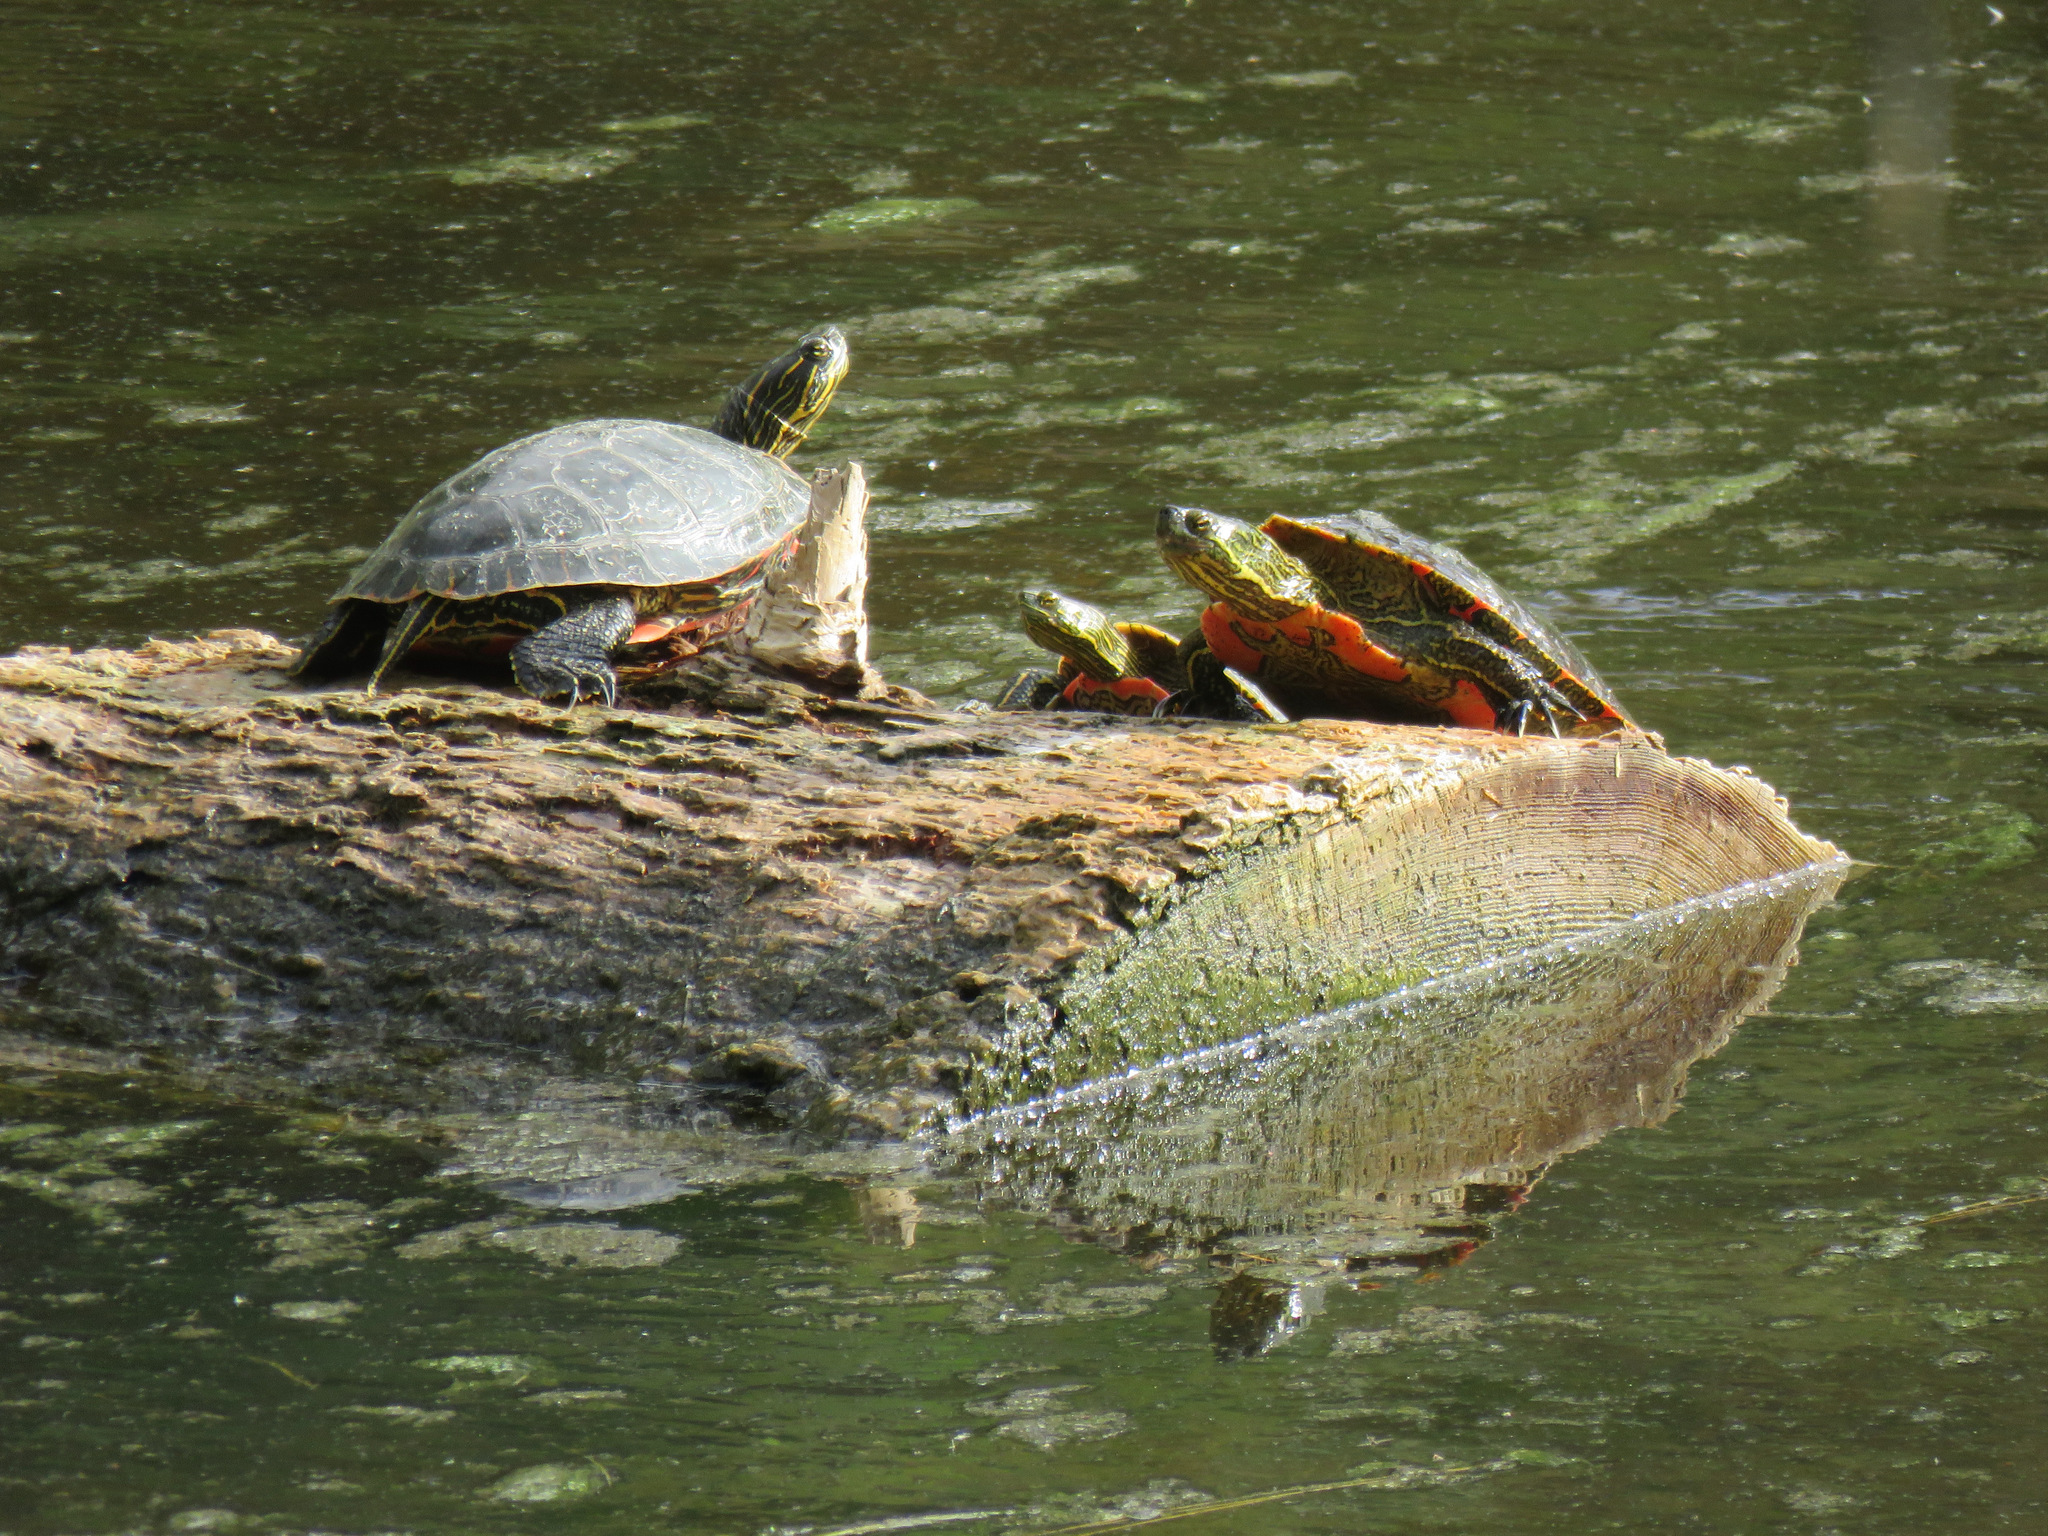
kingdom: Animalia
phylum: Chordata
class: Testudines
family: Emydidae
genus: Chrysemys
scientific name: Chrysemys picta
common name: Painted turtle
